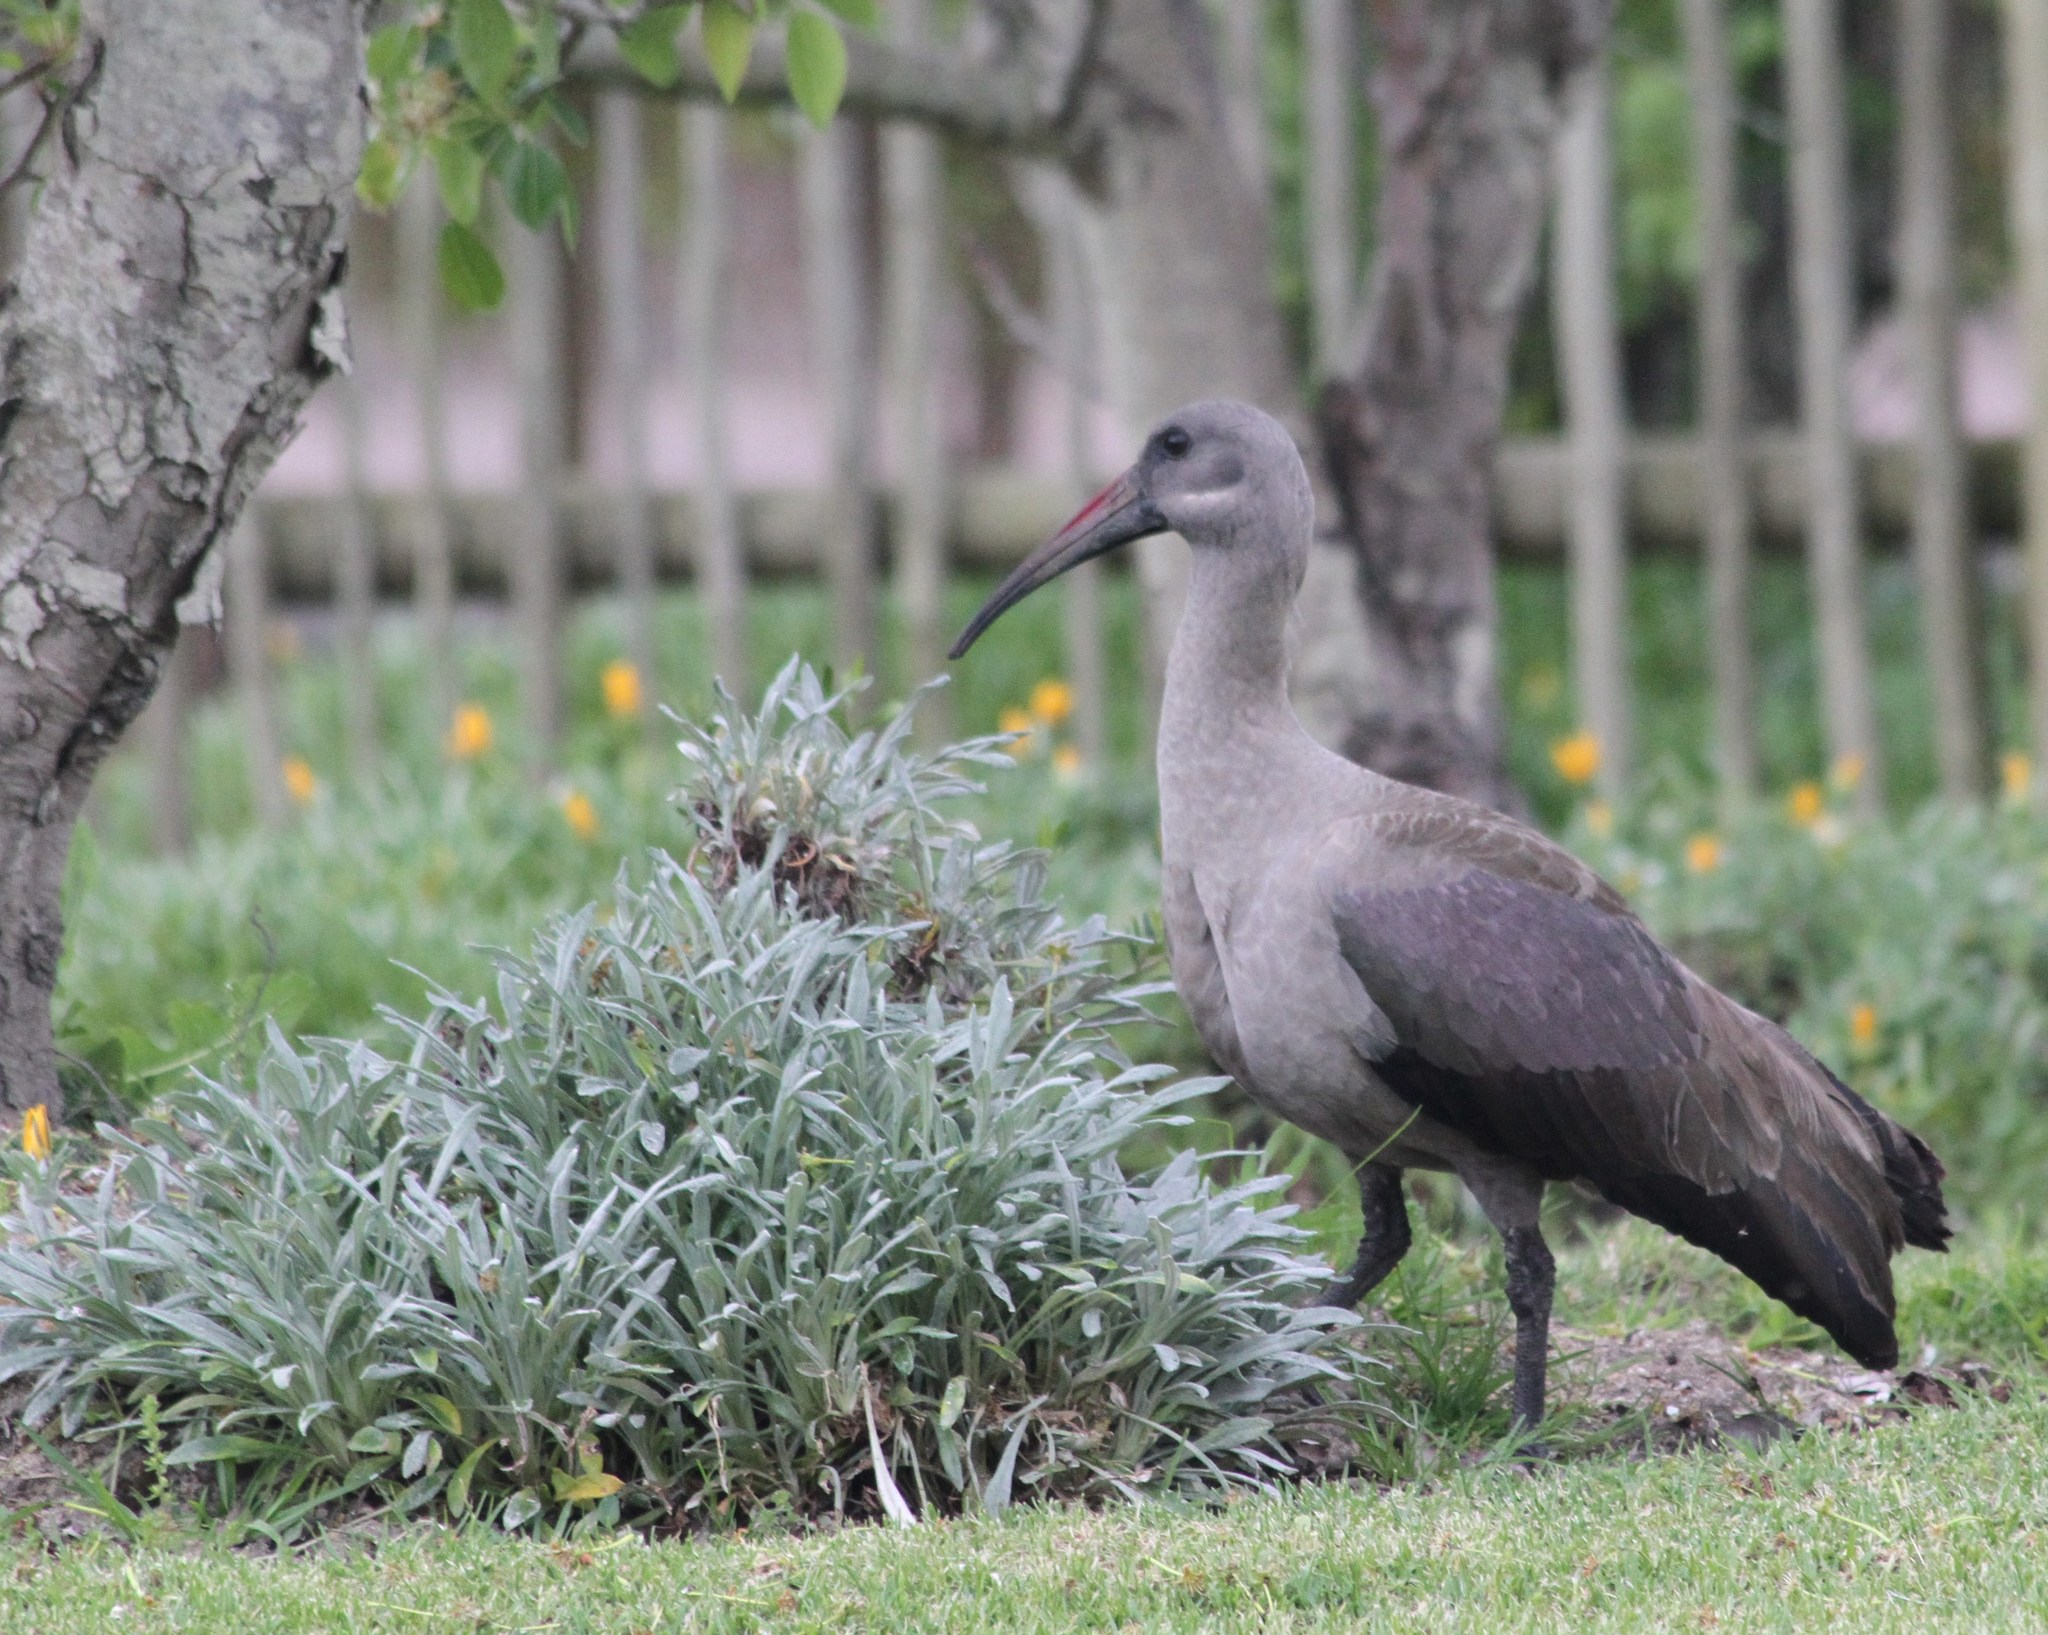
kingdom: Animalia
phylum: Chordata
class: Aves
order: Pelecaniformes
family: Threskiornithidae
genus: Bostrychia
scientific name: Bostrychia hagedash
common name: Hadada ibis
